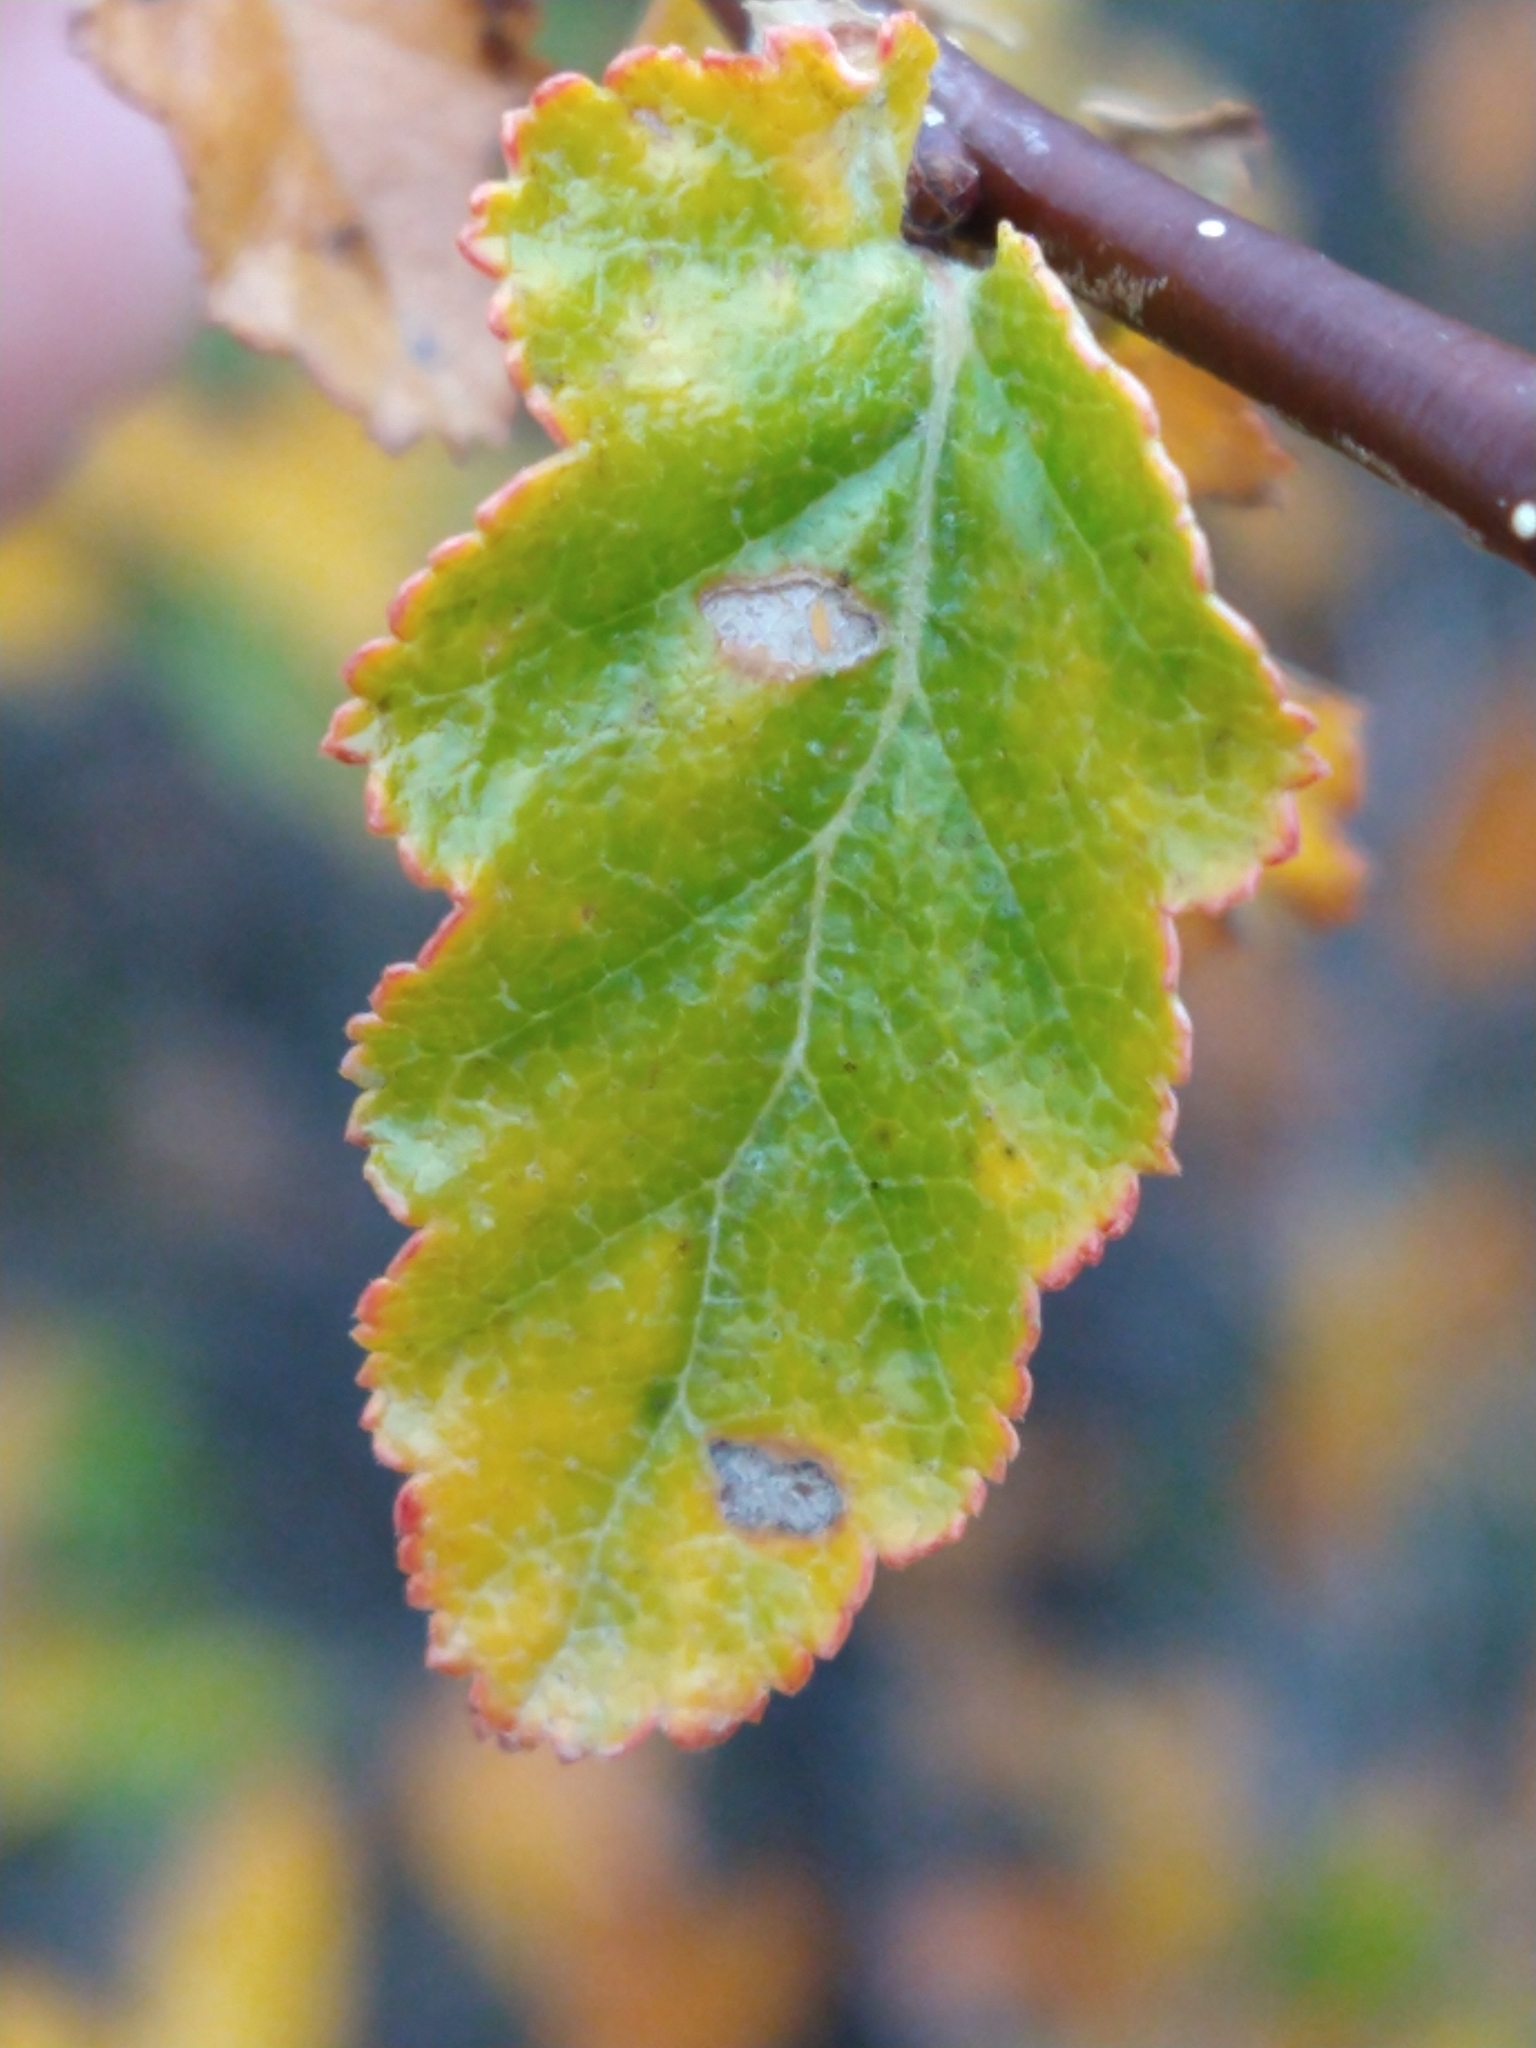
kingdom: Plantae
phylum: Tracheophyta
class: Magnoliopsida
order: Fagales
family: Nothofagaceae
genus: Nothofagus
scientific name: Nothofagus antarctica
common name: Antarctic beech
